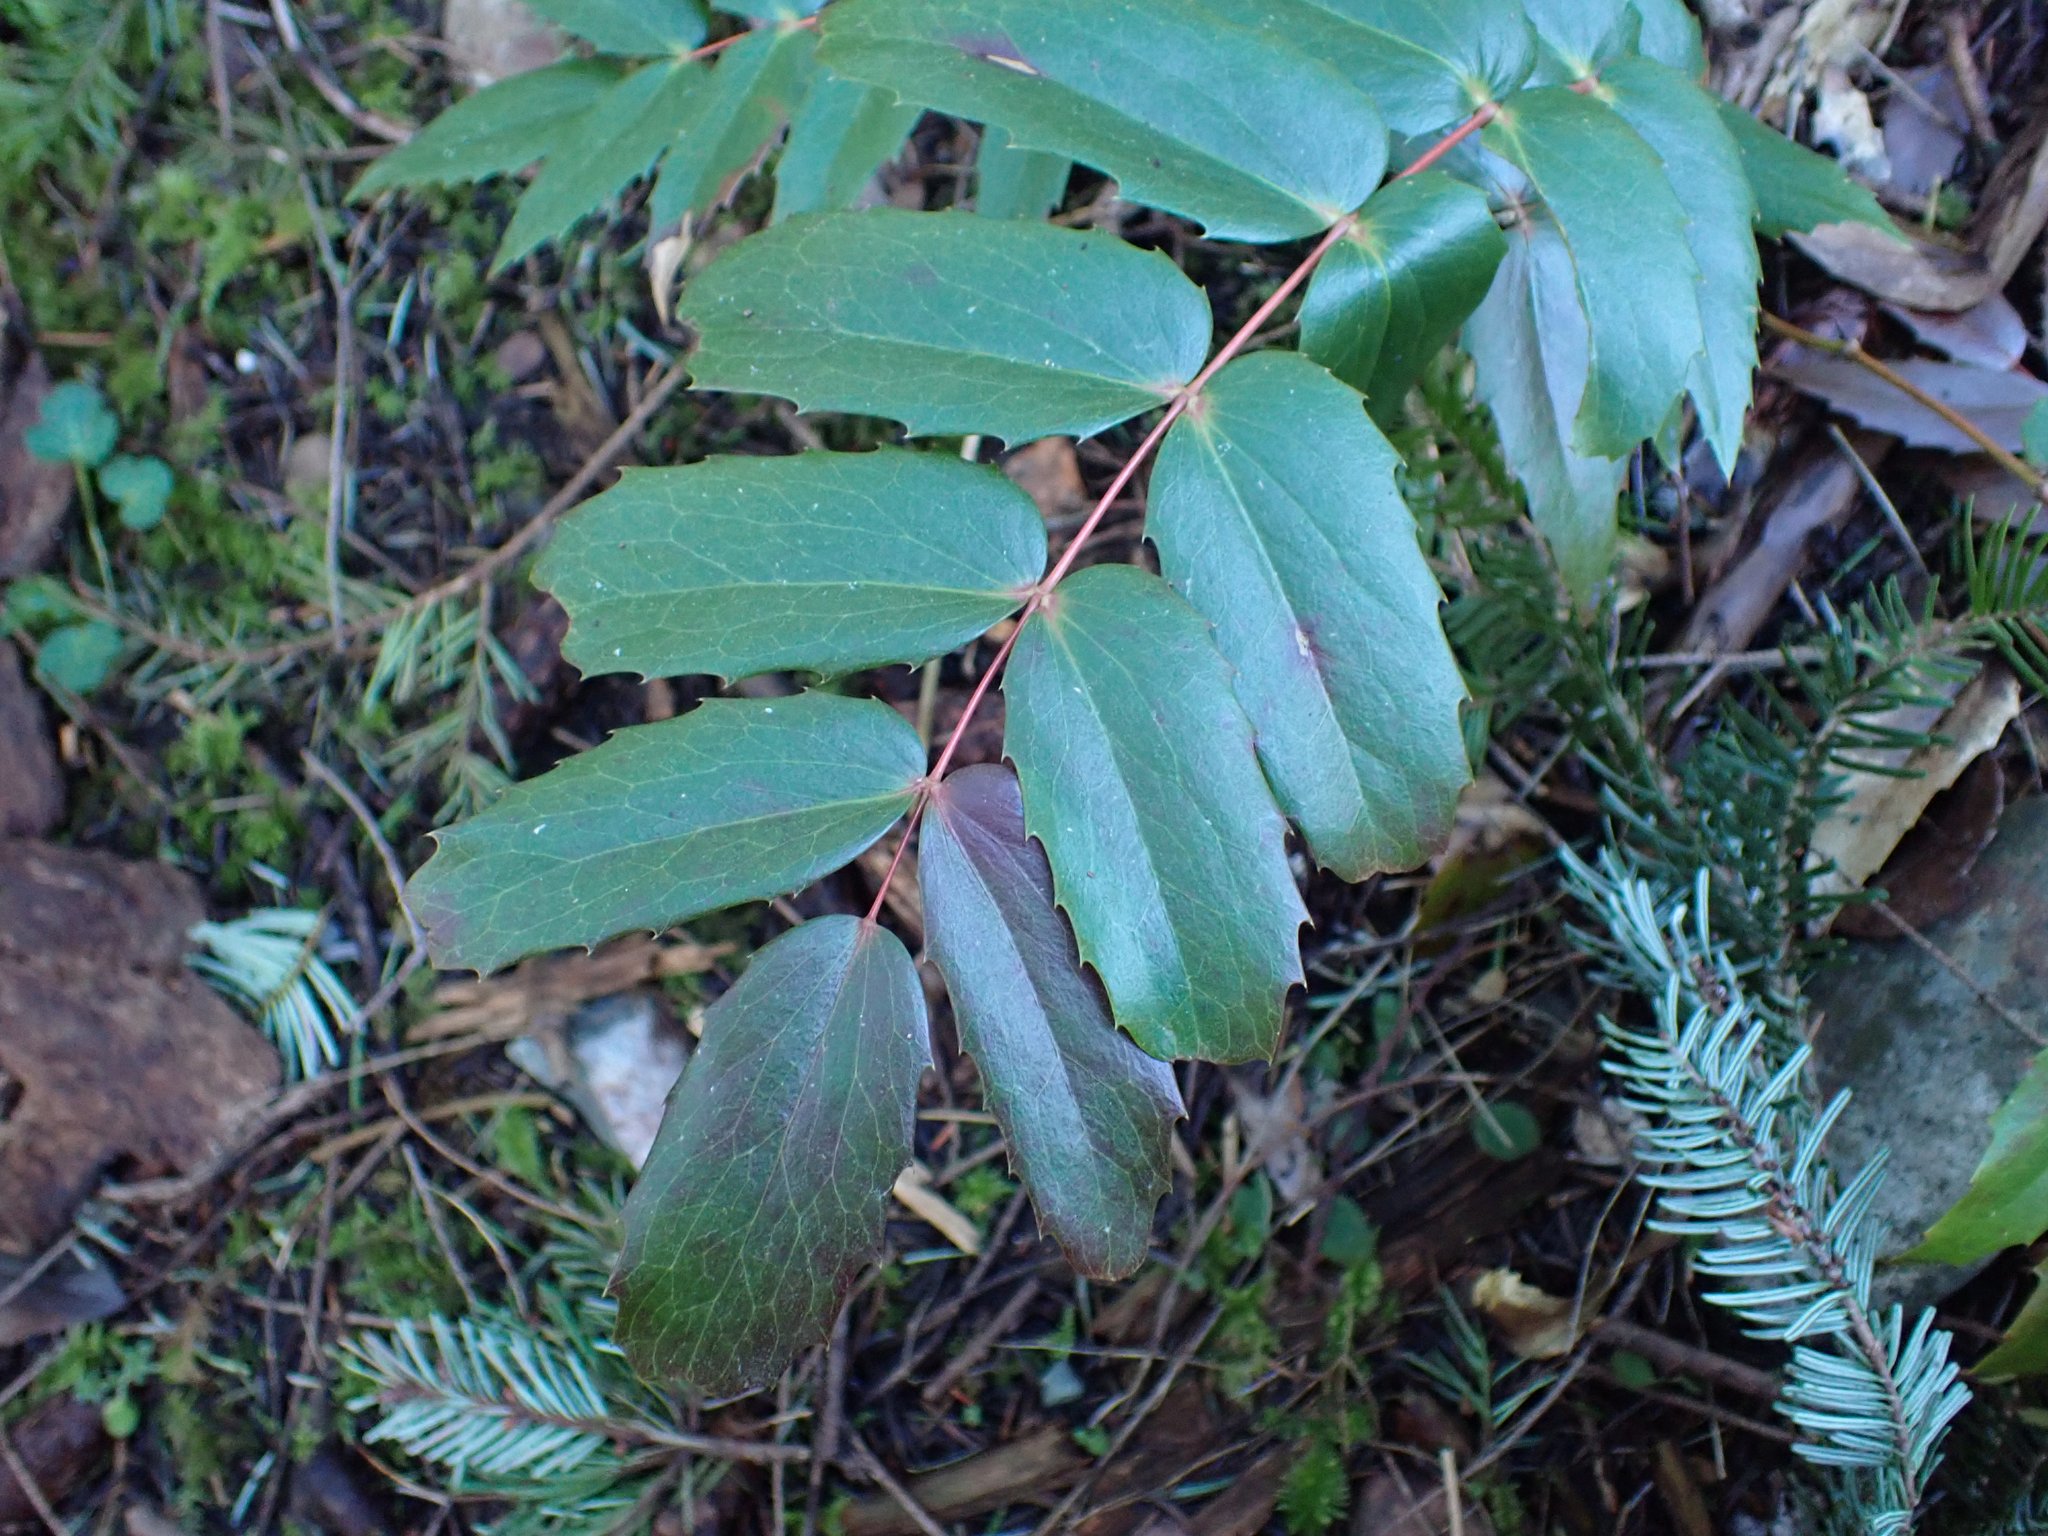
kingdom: Plantae
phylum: Tracheophyta
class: Magnoliopsida
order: Ranunculales
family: Berberidaceae
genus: Mahonia
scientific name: Mahonia nervosa
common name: Cascade oregon-grape
